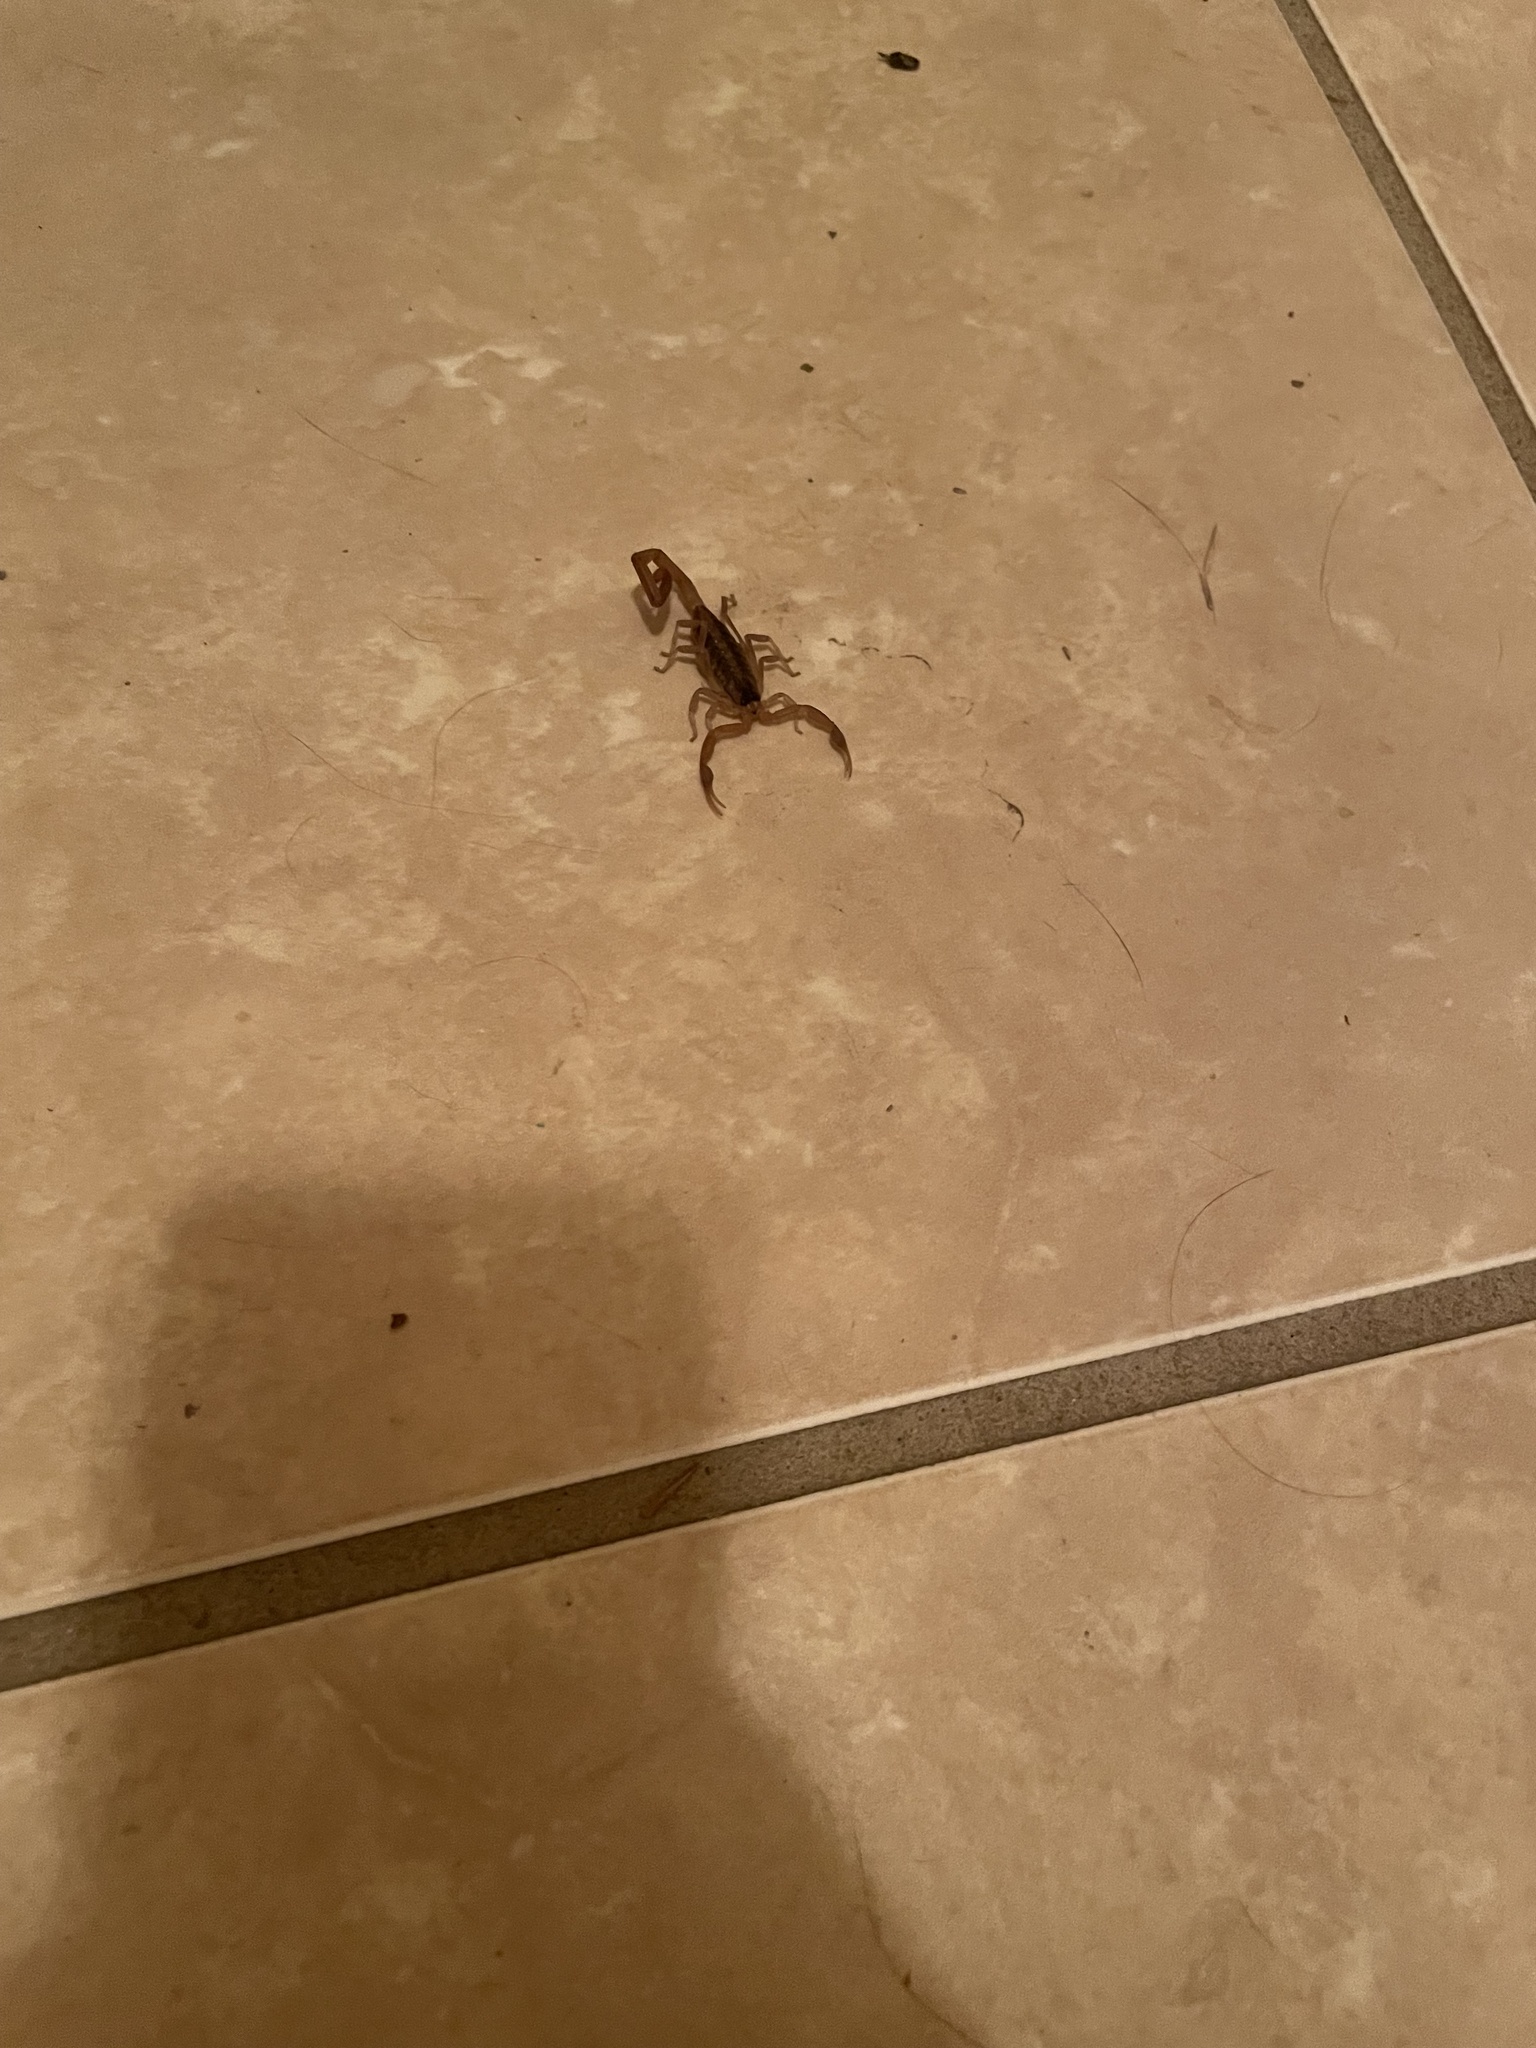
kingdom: Animalia
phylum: Arthropoda
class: Arachnida
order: Scorpiones
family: Buthidae
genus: Centruroides
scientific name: Centruroides vittatus
